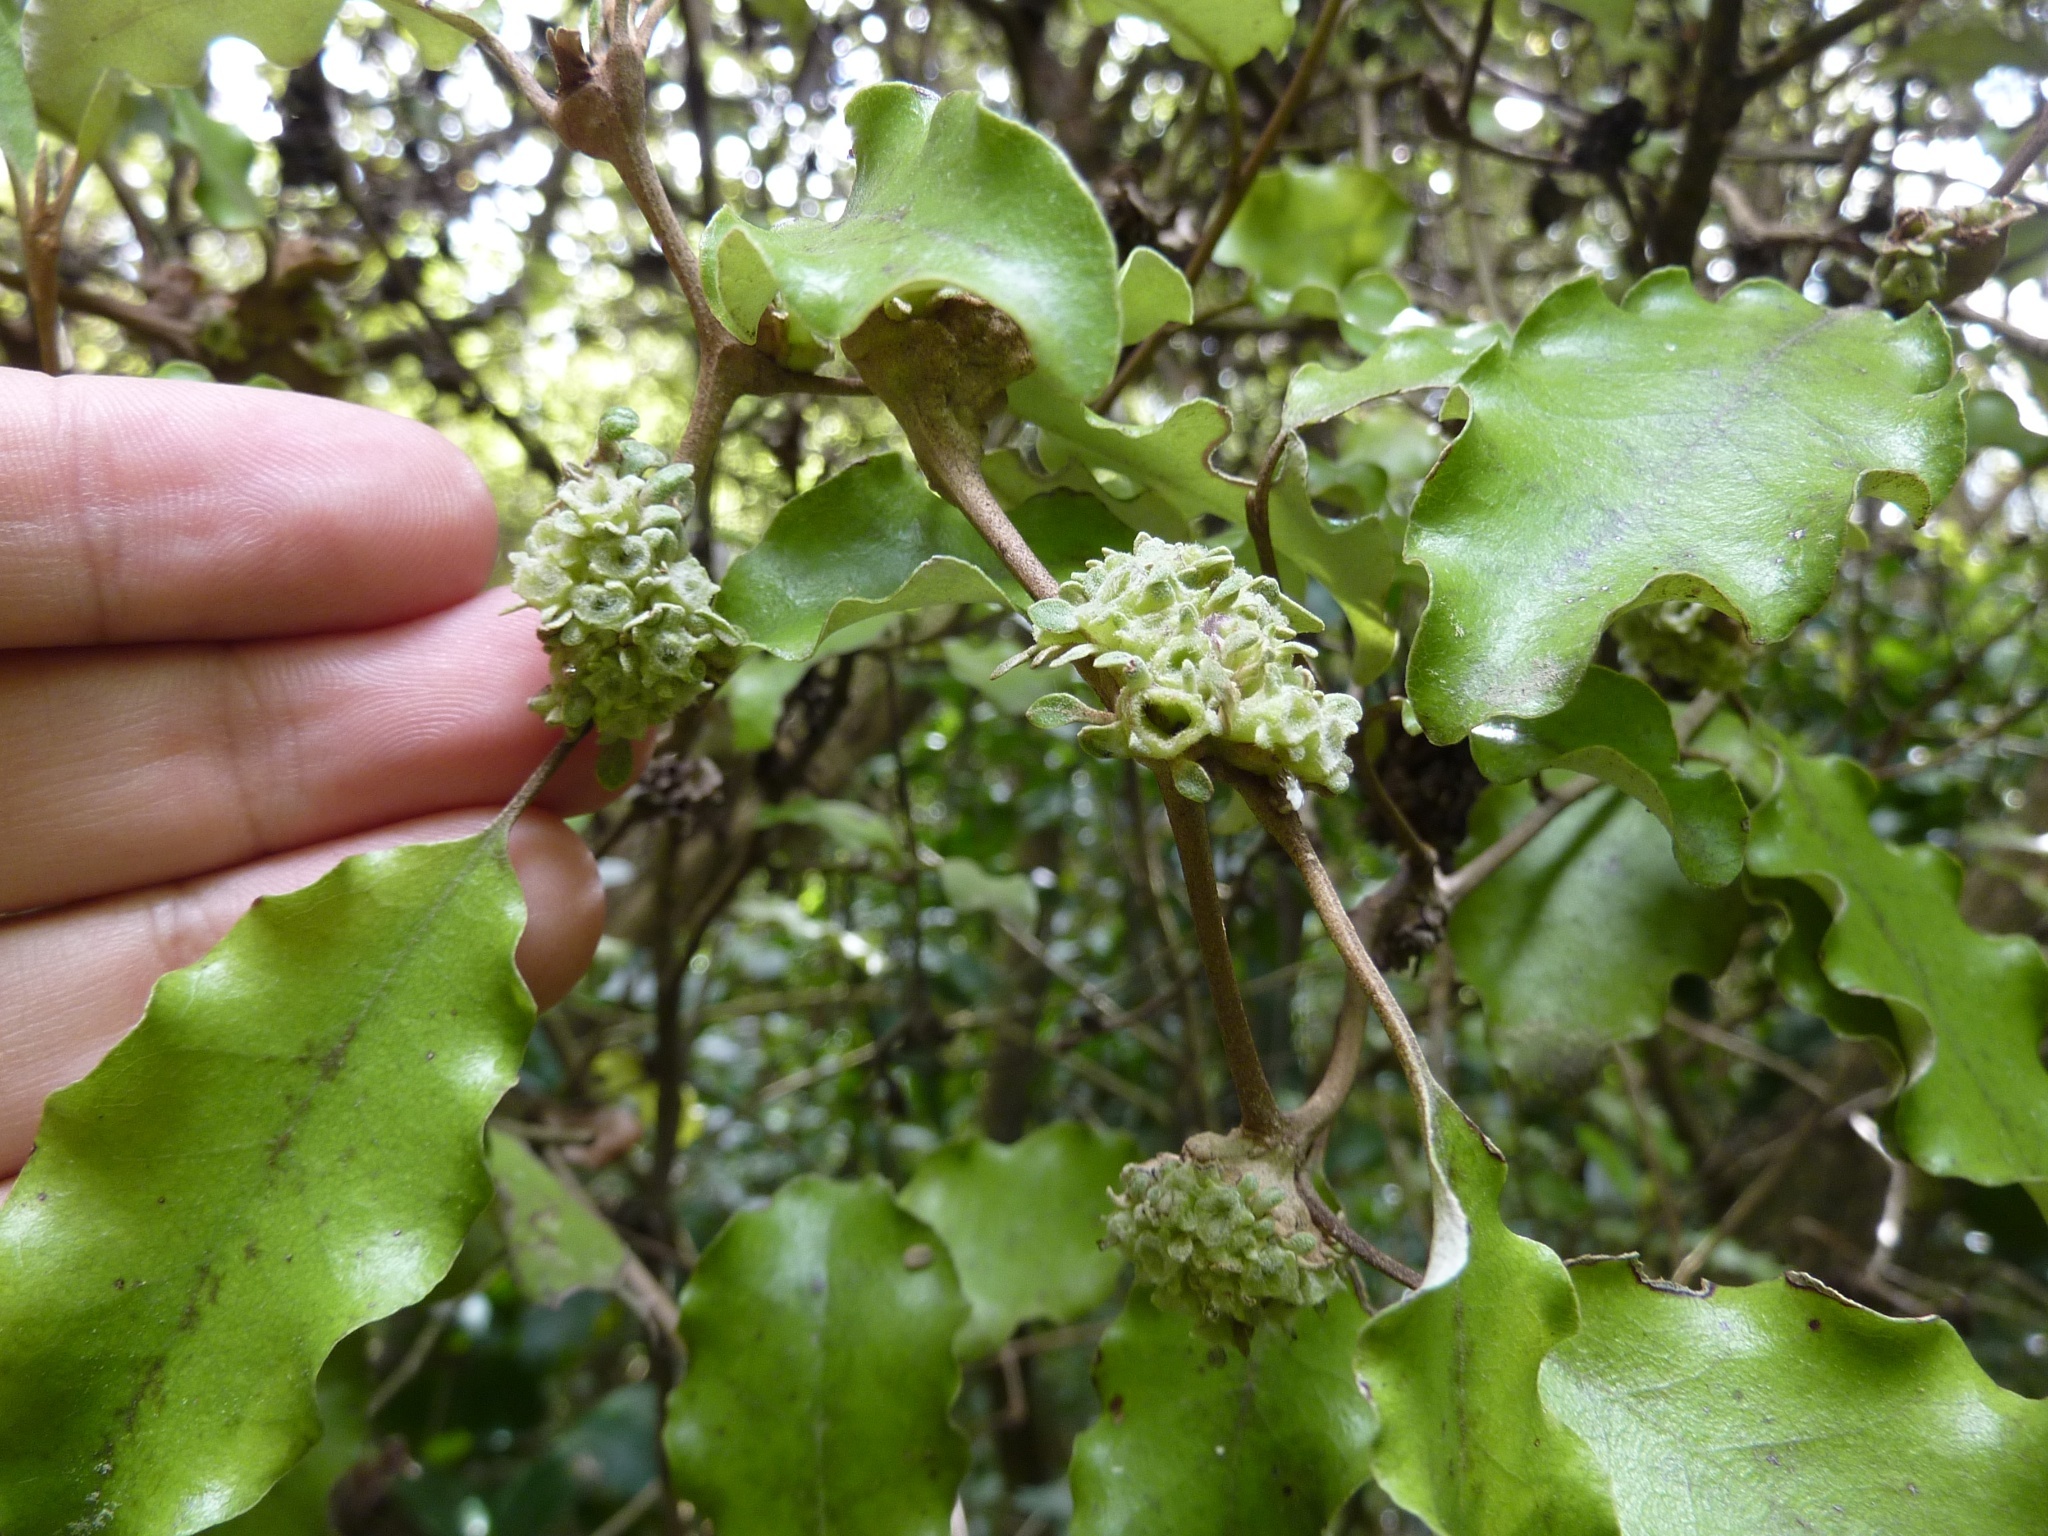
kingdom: Plantae
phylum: Tracheophyta
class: Magnoliopsida
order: Asterales
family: Asteraceae
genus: Olearia
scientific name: Olearia paniculata
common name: Akiraho
